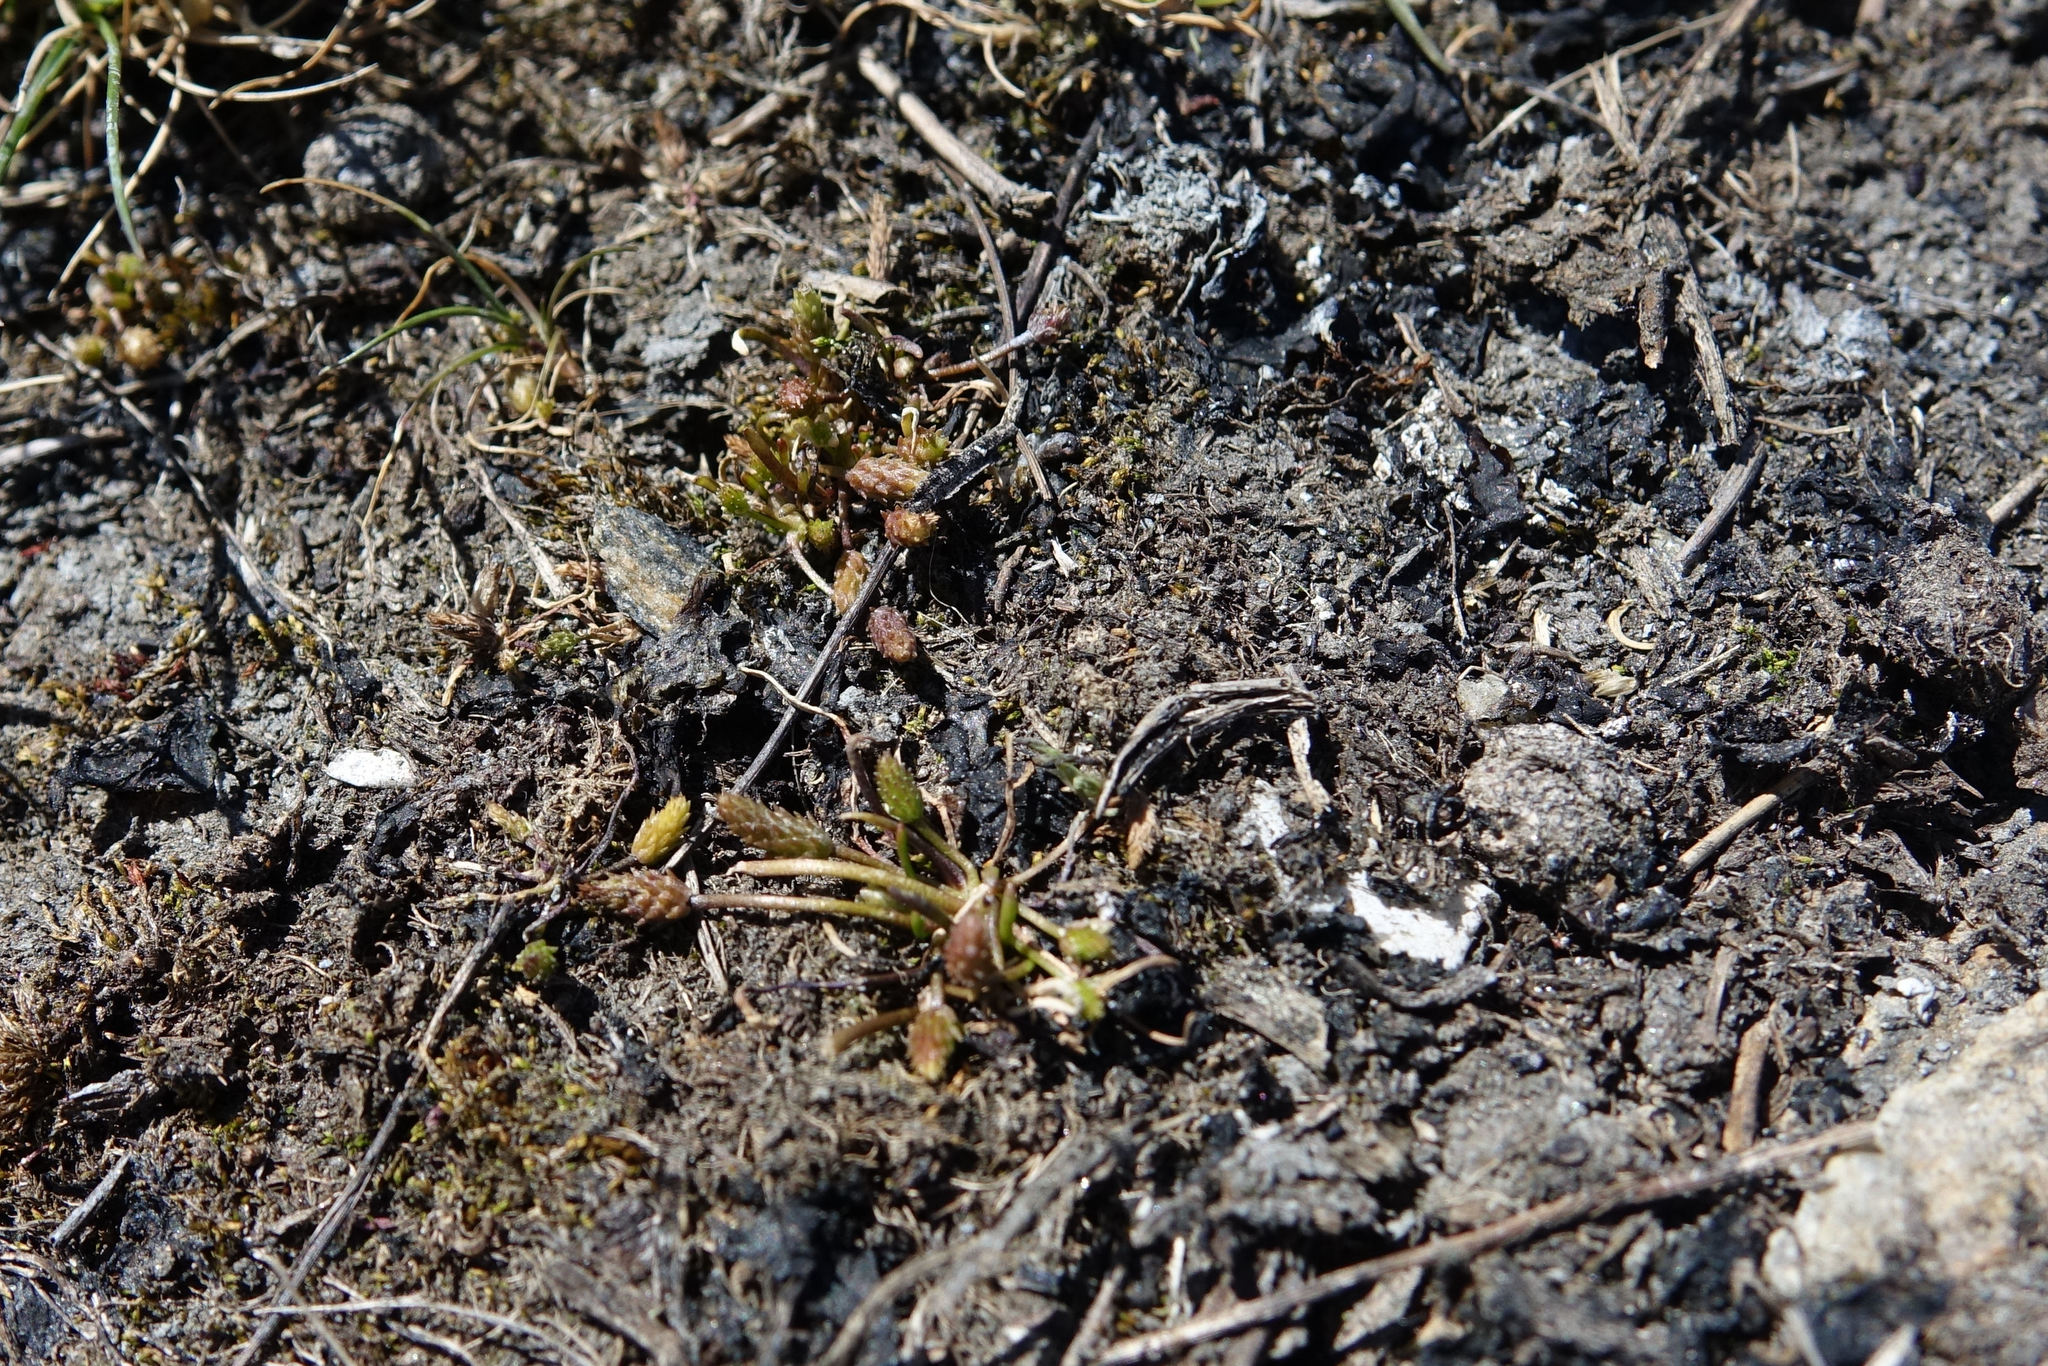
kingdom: Plantae
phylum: Tracheophyta
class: Magnoliopsida
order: Ranunculales
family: Ranunculaceae
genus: Myosurus
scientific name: Myosurus minimus
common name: Mousetail
